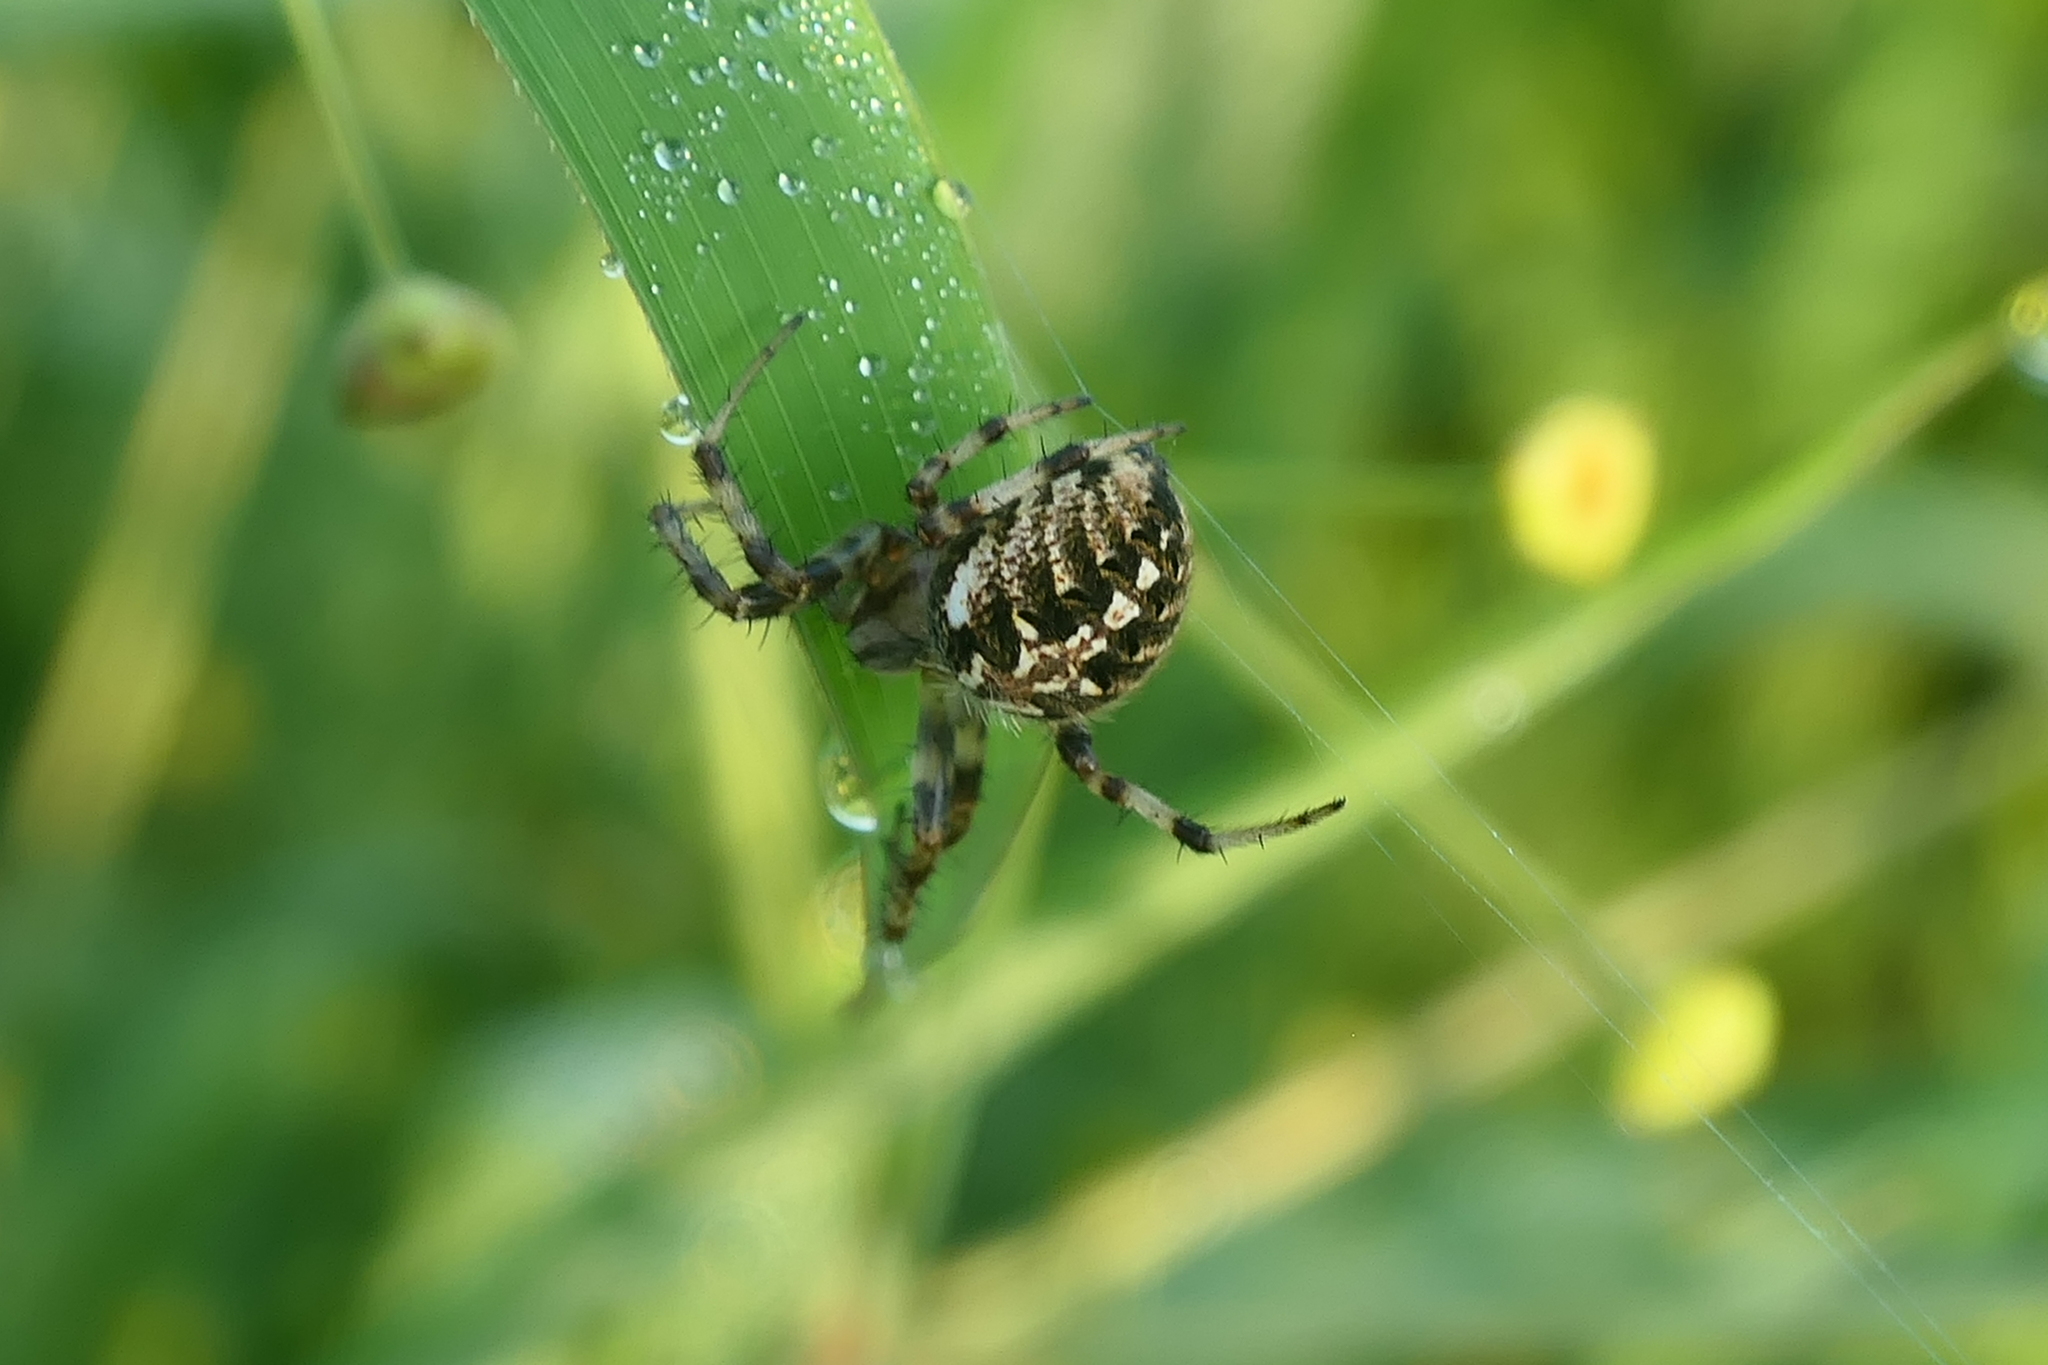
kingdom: Animalia
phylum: Arthropoda
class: Arachnida
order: Araneae
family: Araneidae
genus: Neoscona
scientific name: Neoscona arabesca
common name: Orb weavers
